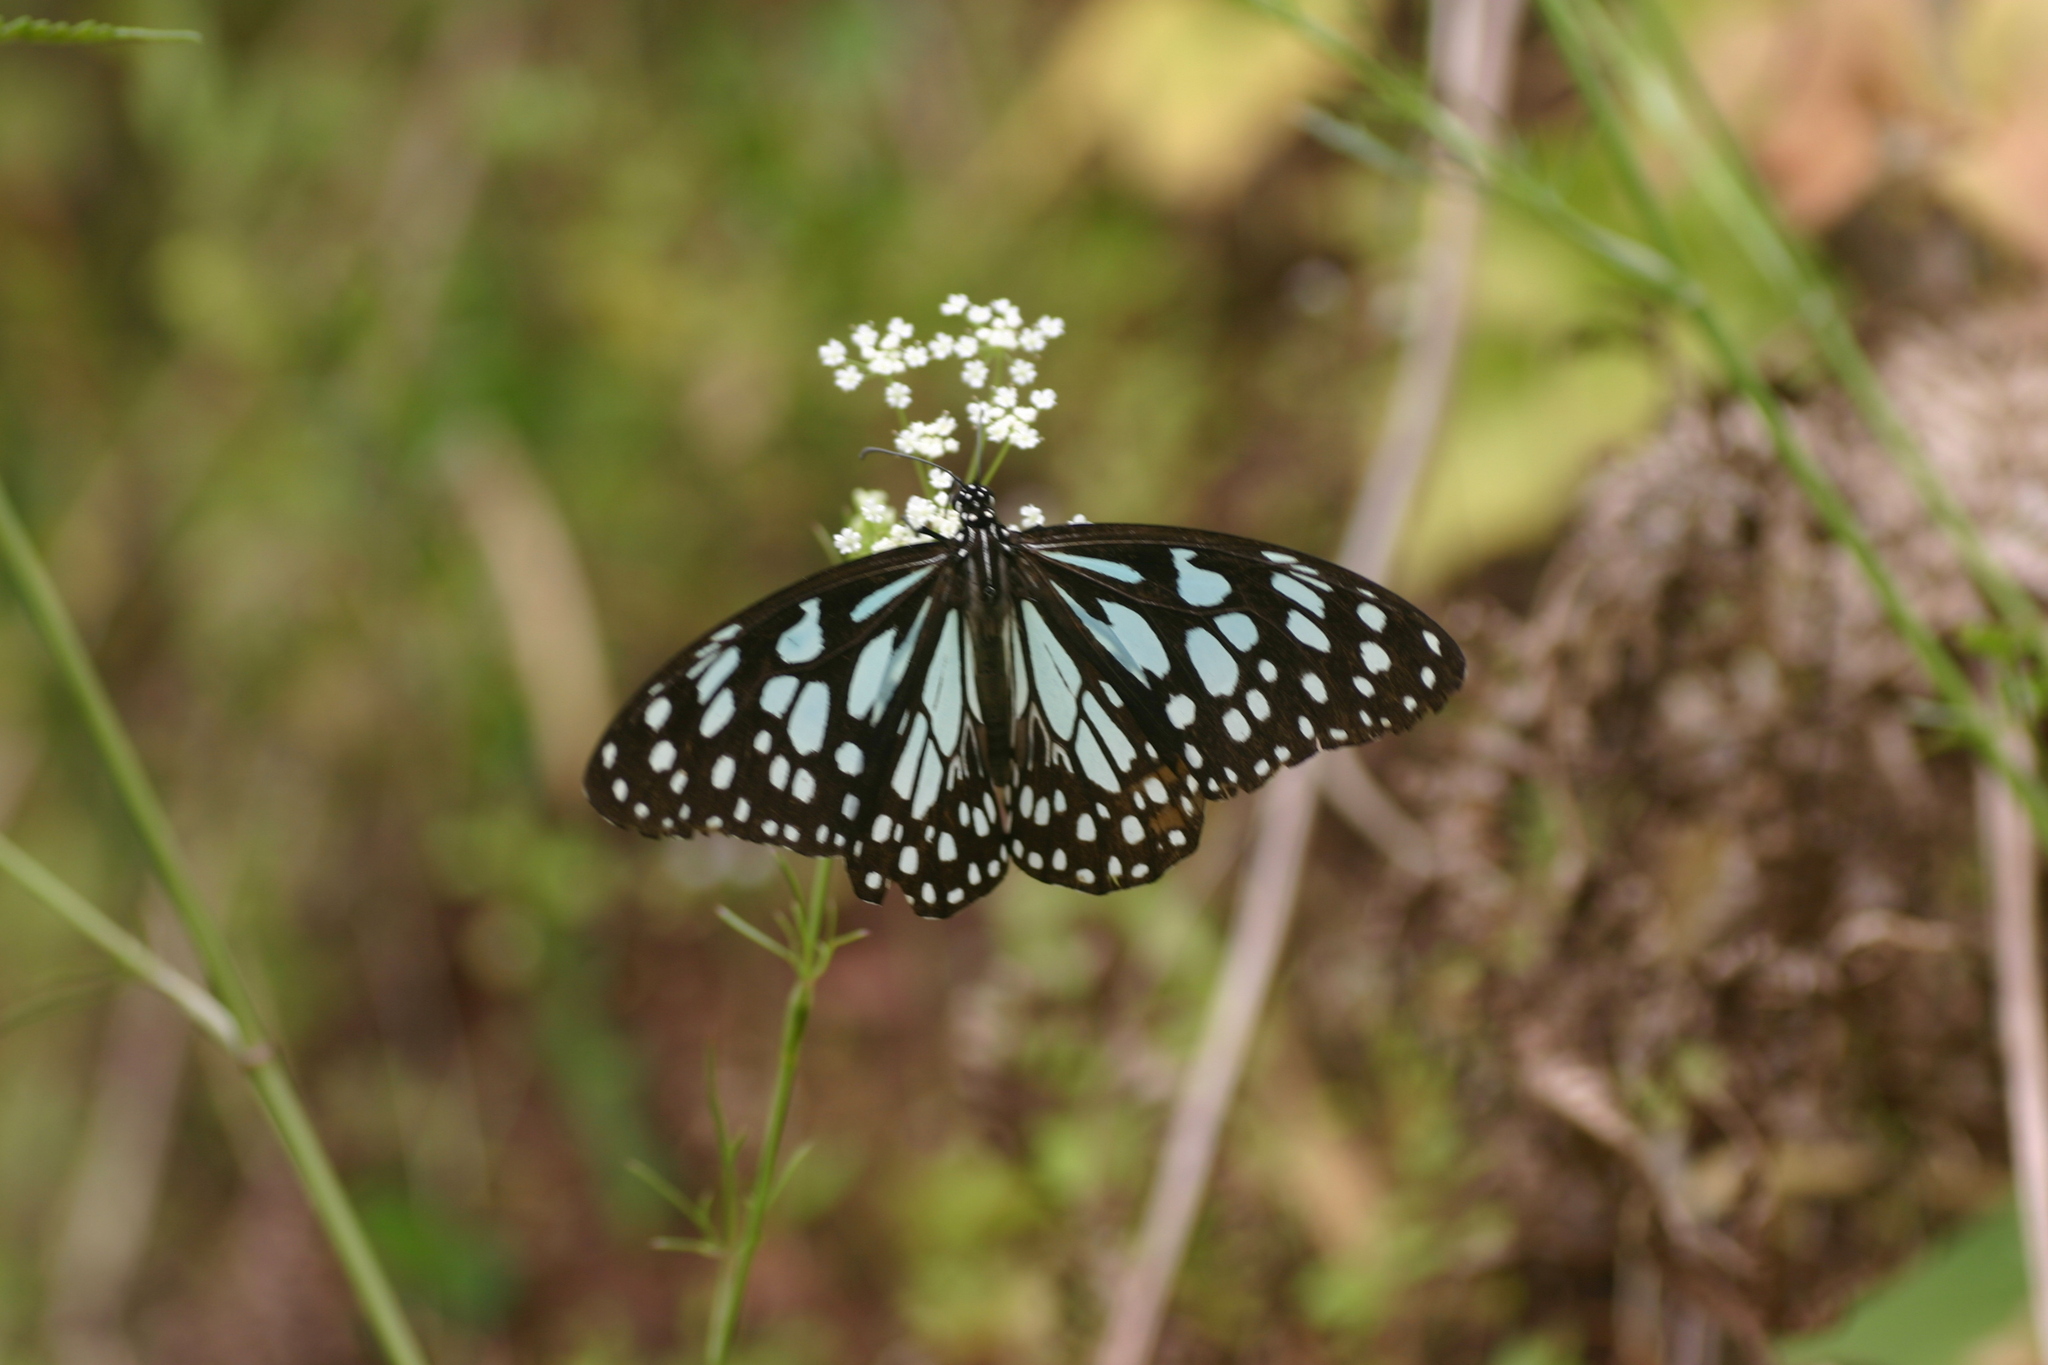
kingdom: Animalia
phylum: Arthropoda
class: Insecta
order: Lepidoptera
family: Nymphalidae
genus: Tirumala
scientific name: Tirumala limniace
